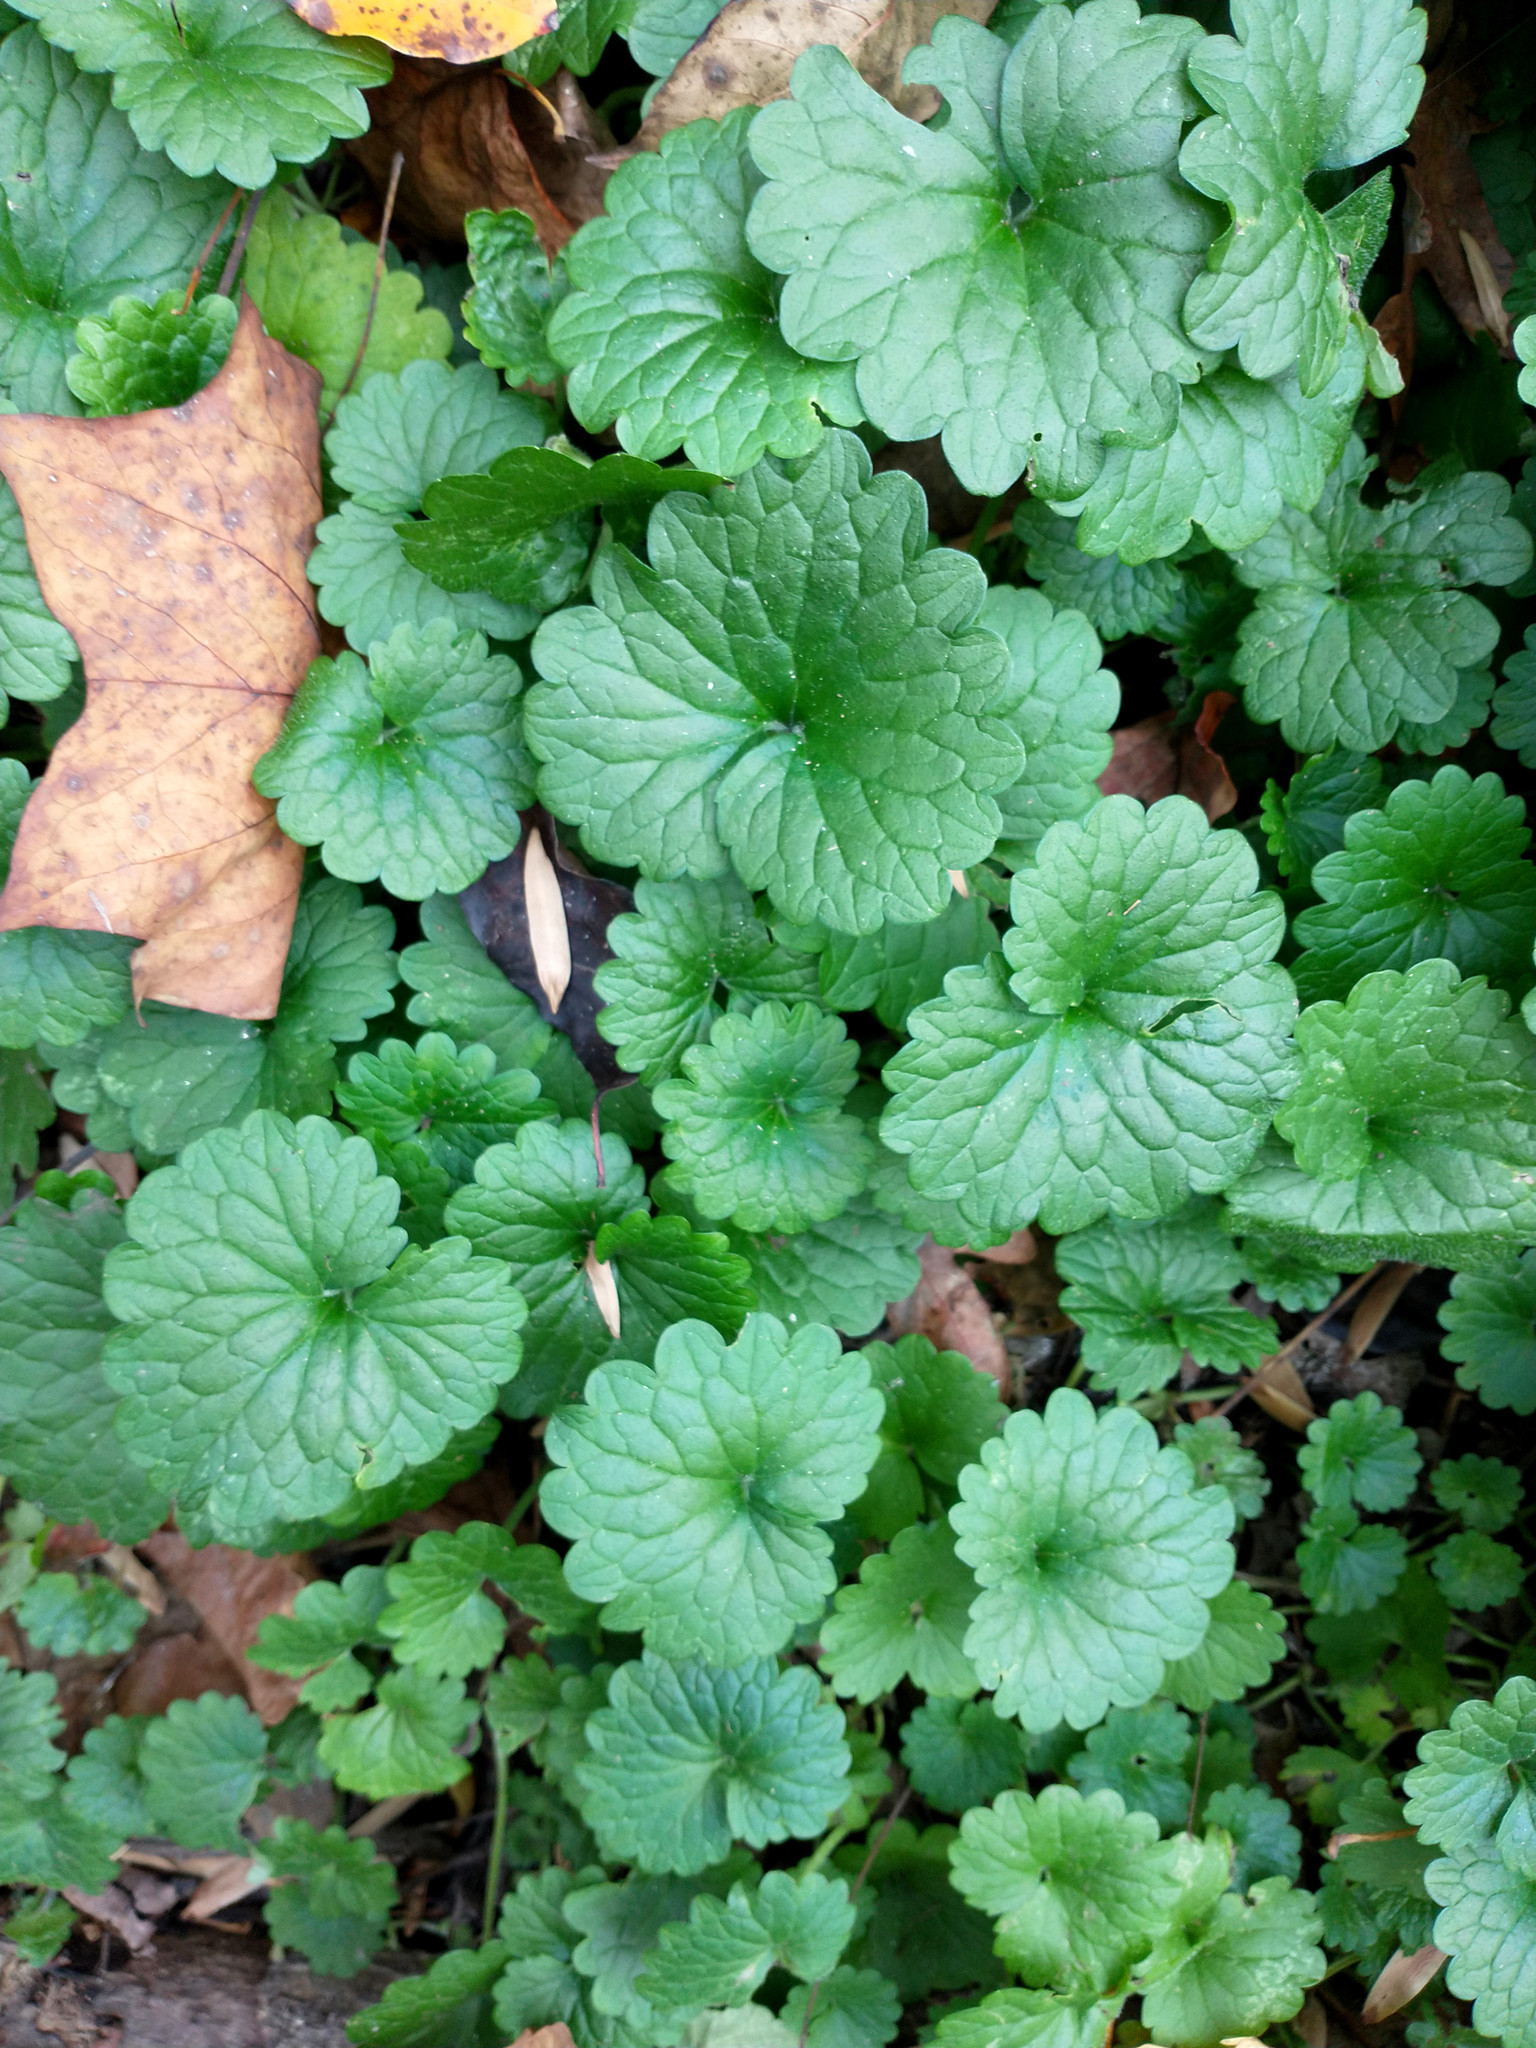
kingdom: Plantae
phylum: Tracheophyta
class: Magnoliopsida
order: Lamiales
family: Lamiaceae
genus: Glechoma
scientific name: Glechoma hederacea
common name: Ground ivy
